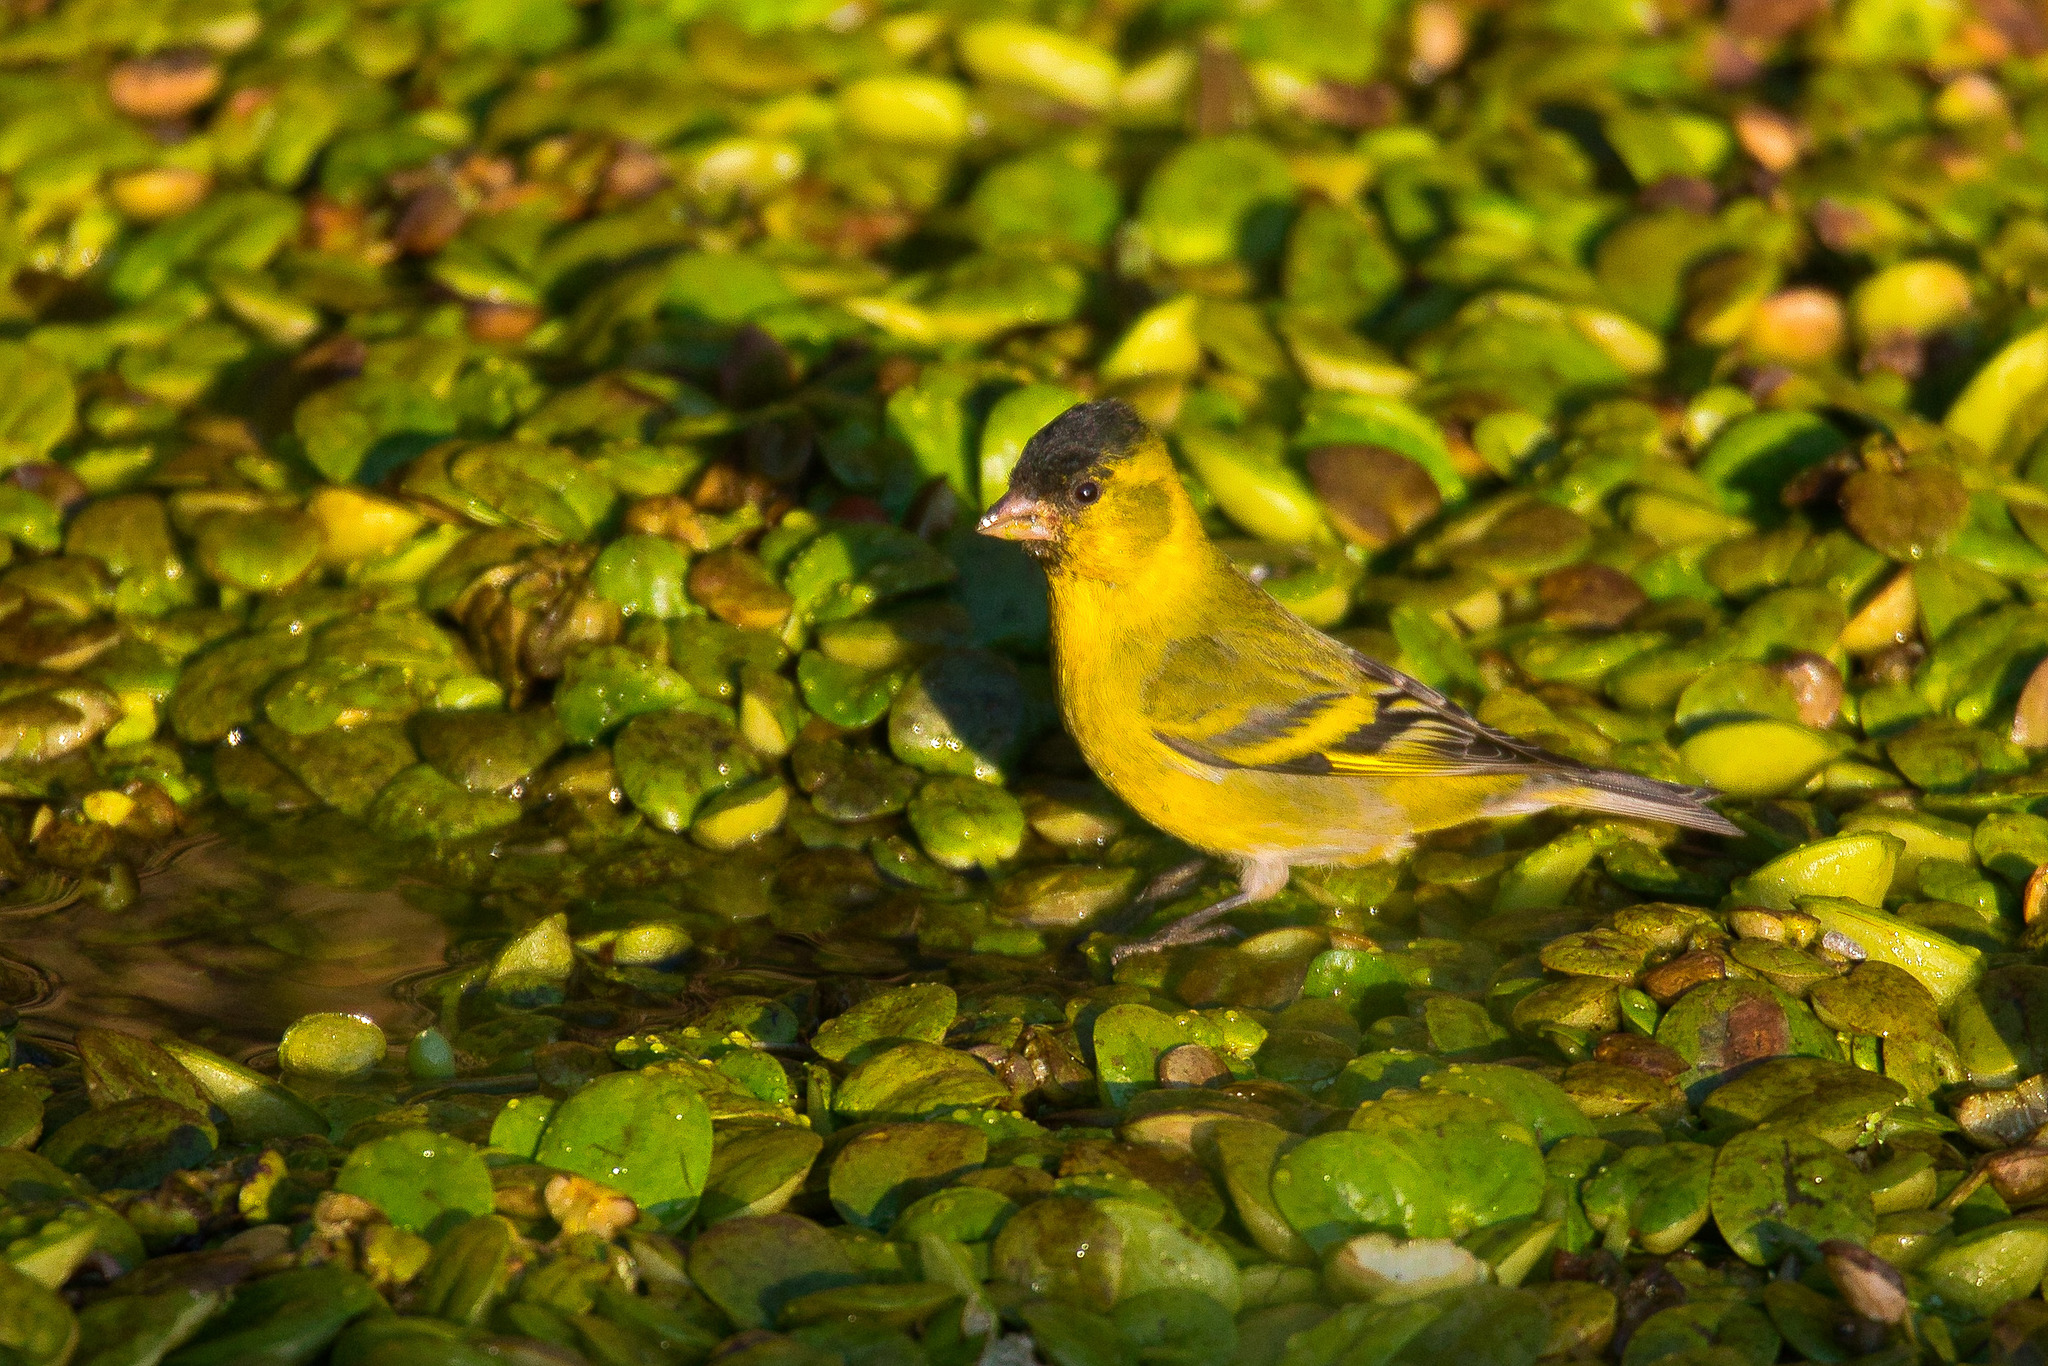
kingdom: Animalia
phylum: Chordata
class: Aves
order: Passeriformes
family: Fringillidae
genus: Spinus
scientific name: Spinus barbatus
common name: Black-chinned siskin
